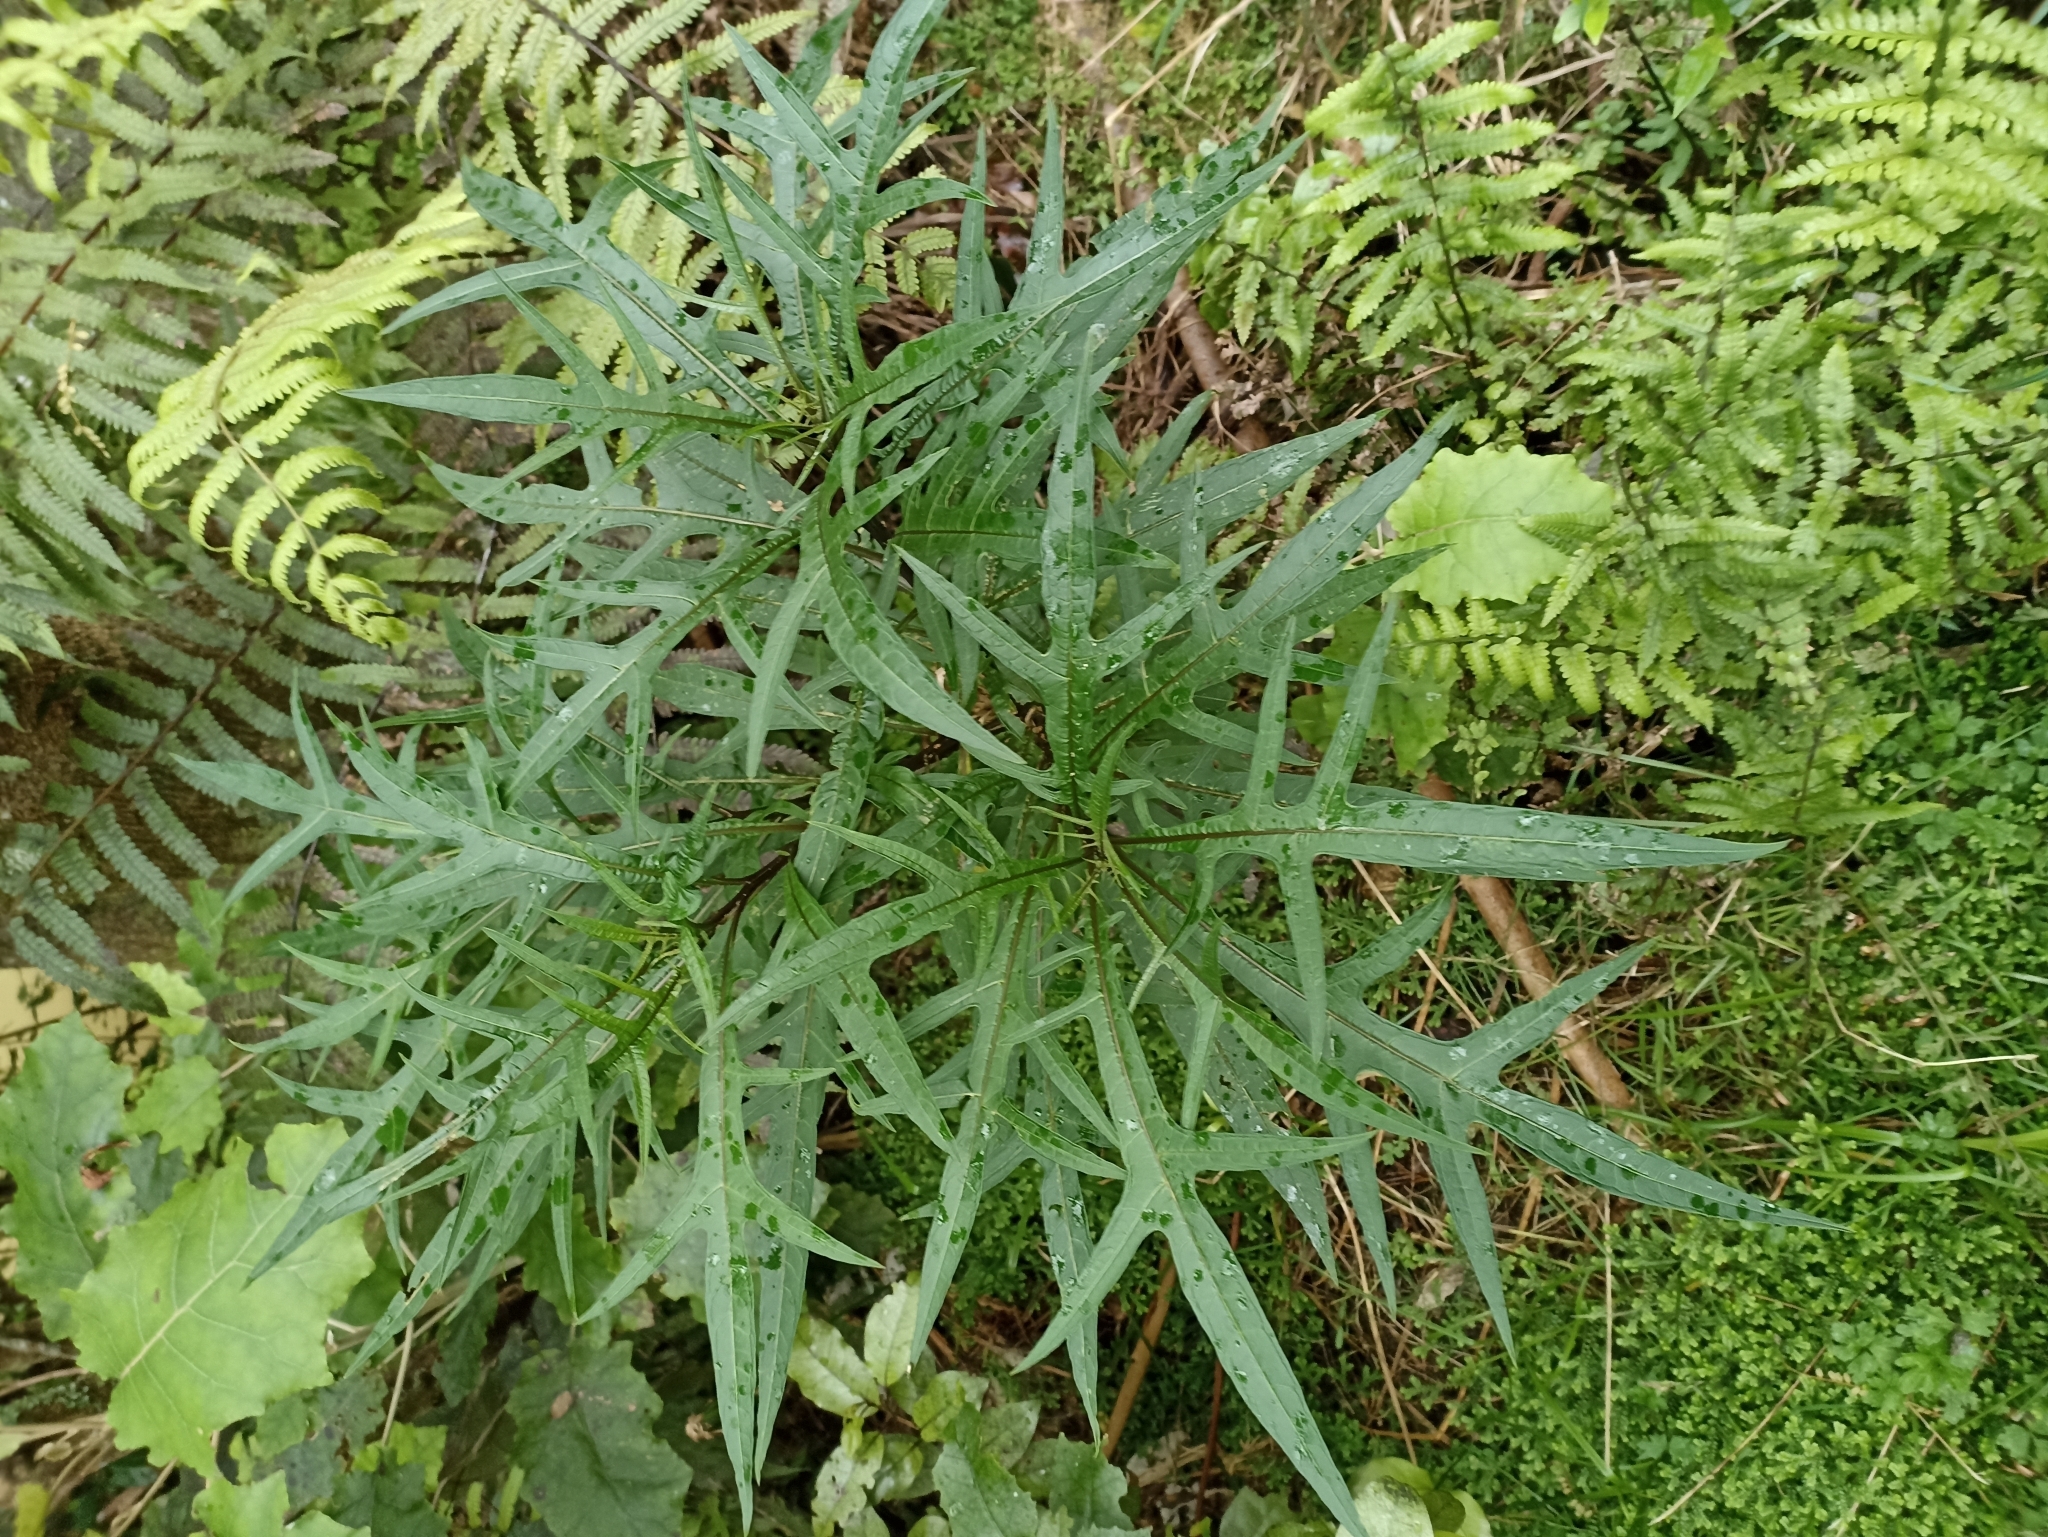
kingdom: Plantae
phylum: Tracheophyta
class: Magnoliopsida
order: Solanales
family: Solanaceae
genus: Solanum
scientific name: Solanum
